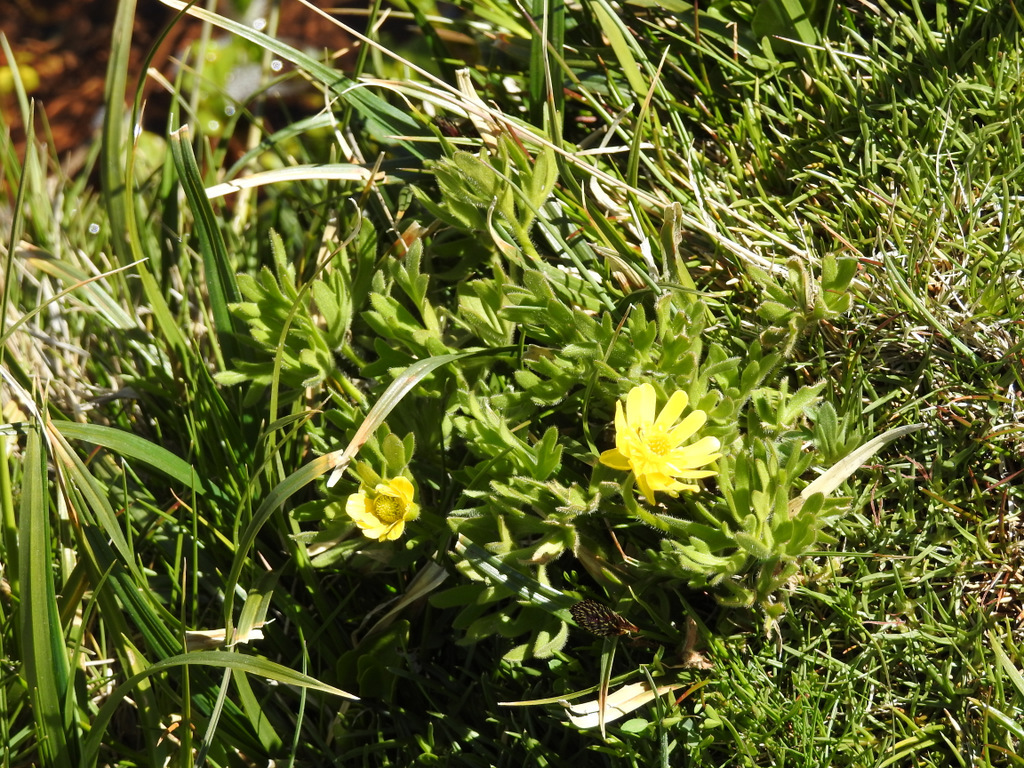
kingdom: Plantae
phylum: Tracheophyta
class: Magnoliopsida
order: Ranunculales
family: Ranunculaceae
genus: Ranunculus
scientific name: Ranunculus peduncularis
